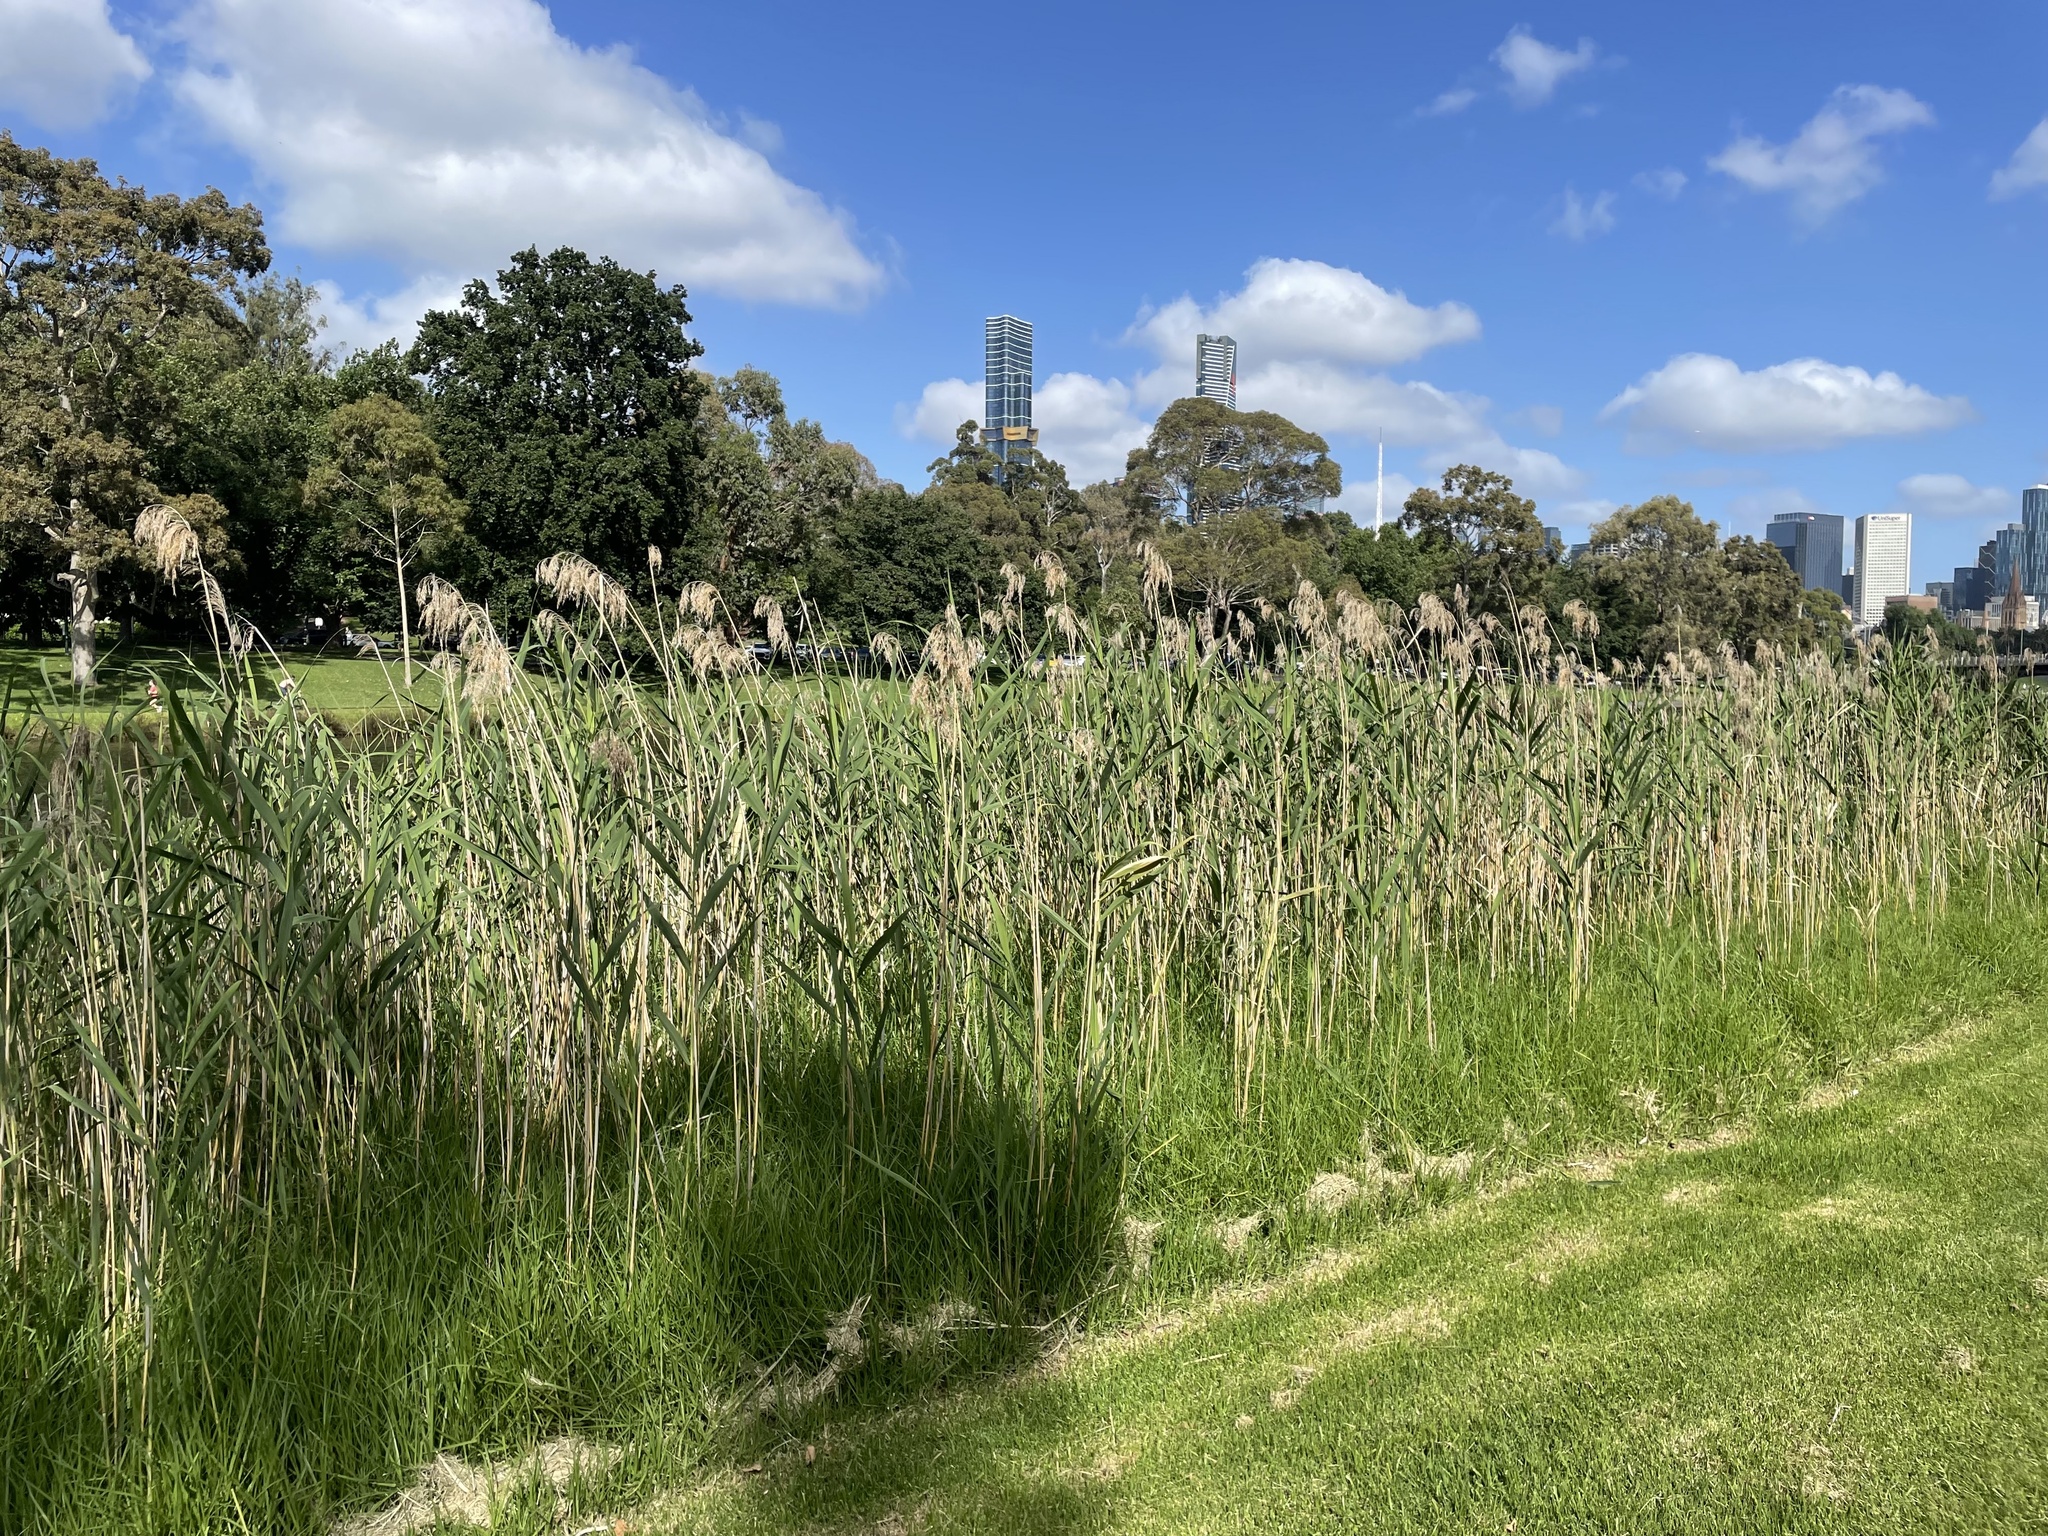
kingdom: Plantae
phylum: Tracheophyta
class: Liliopsida
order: Poales
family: Poaceae
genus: Phragmites
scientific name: Phragmites australis
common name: Common reed
